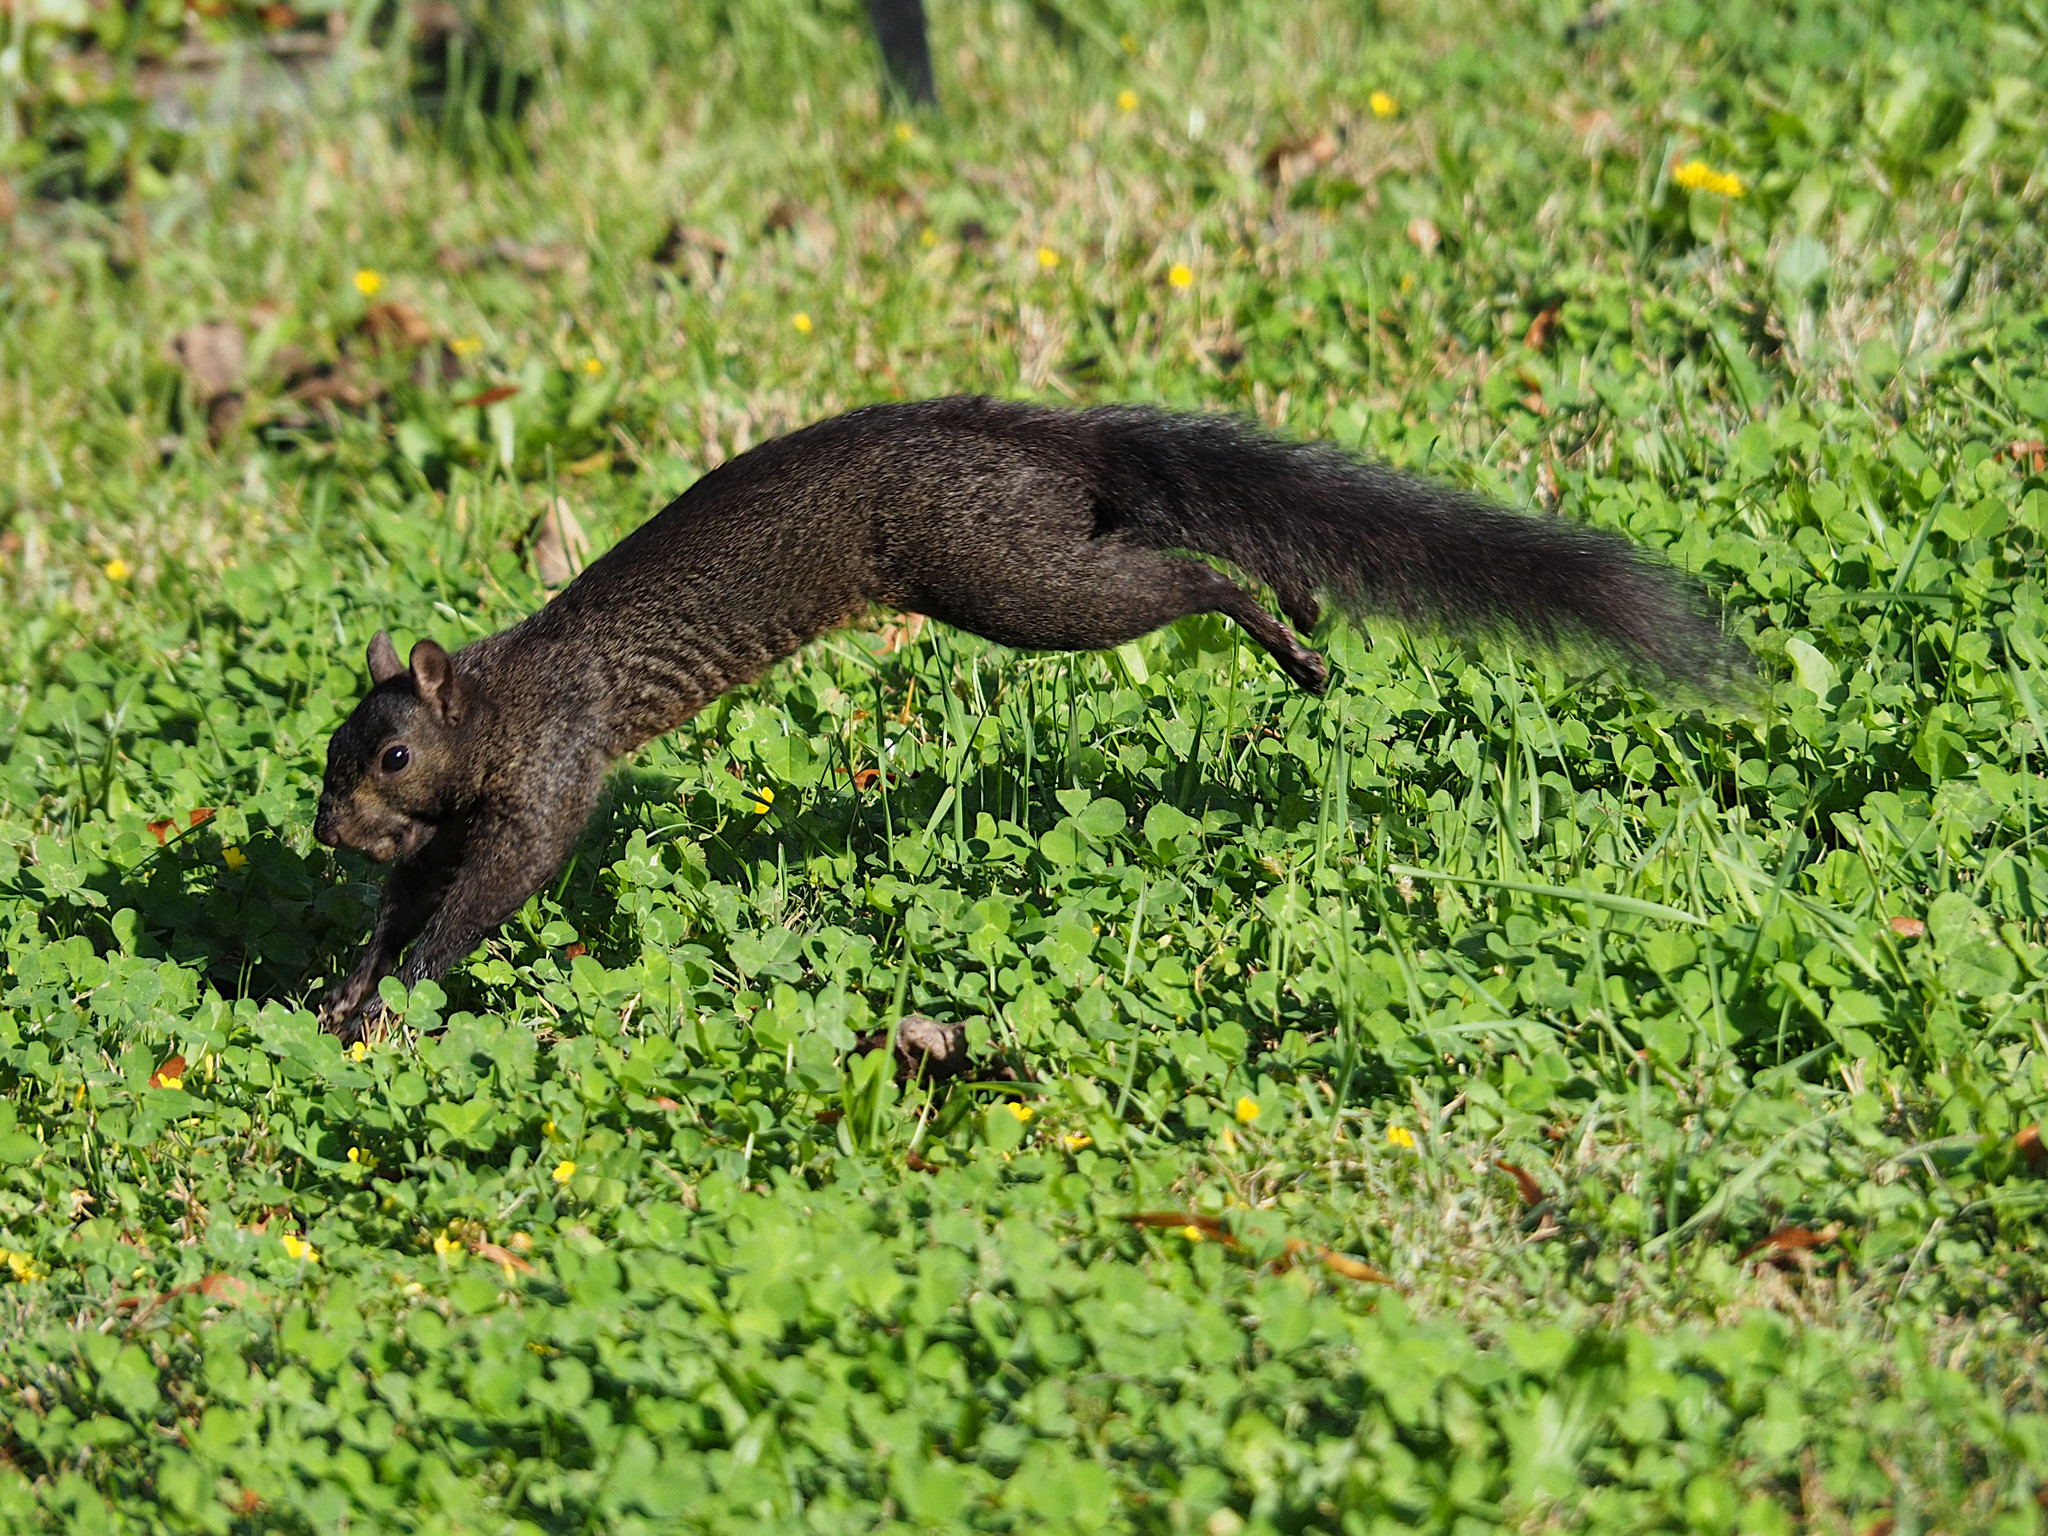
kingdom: Animalia
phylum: Chordata
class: Mammalia
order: Rodentia
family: Sciuridae
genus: Sciurus
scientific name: Sciurus carolinensis
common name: Eastern gray squirrel
